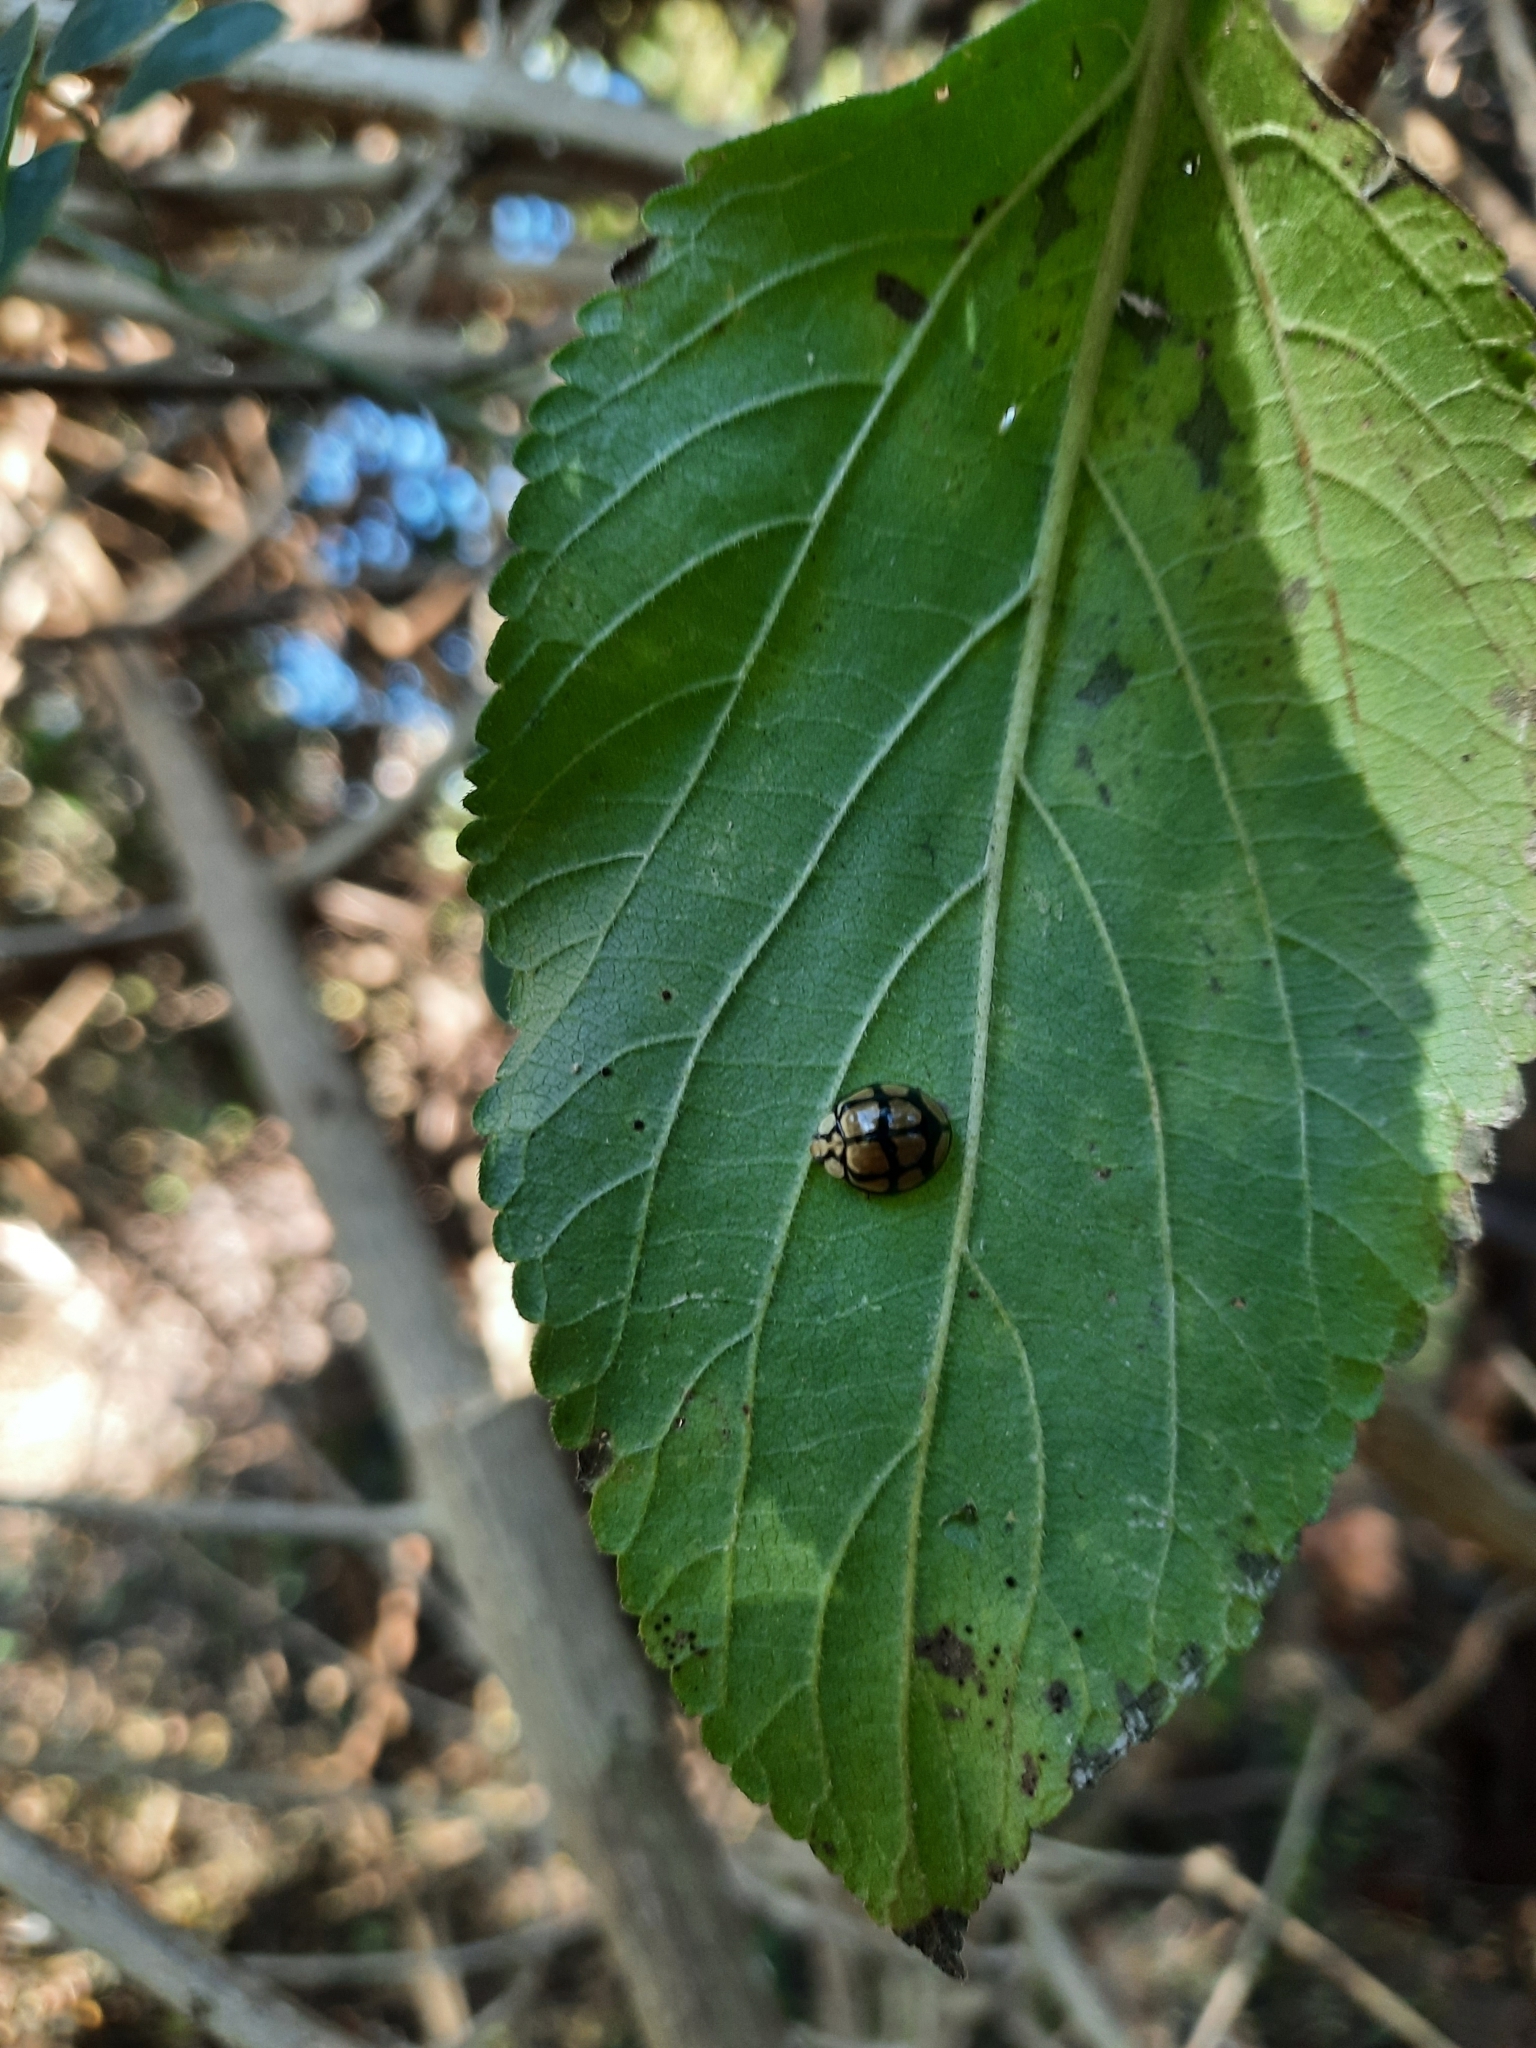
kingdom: Animalia
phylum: Arthropoda
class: Insecta
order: Coleoptera
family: Coccinellidae
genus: Harmonia
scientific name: Harmonia
